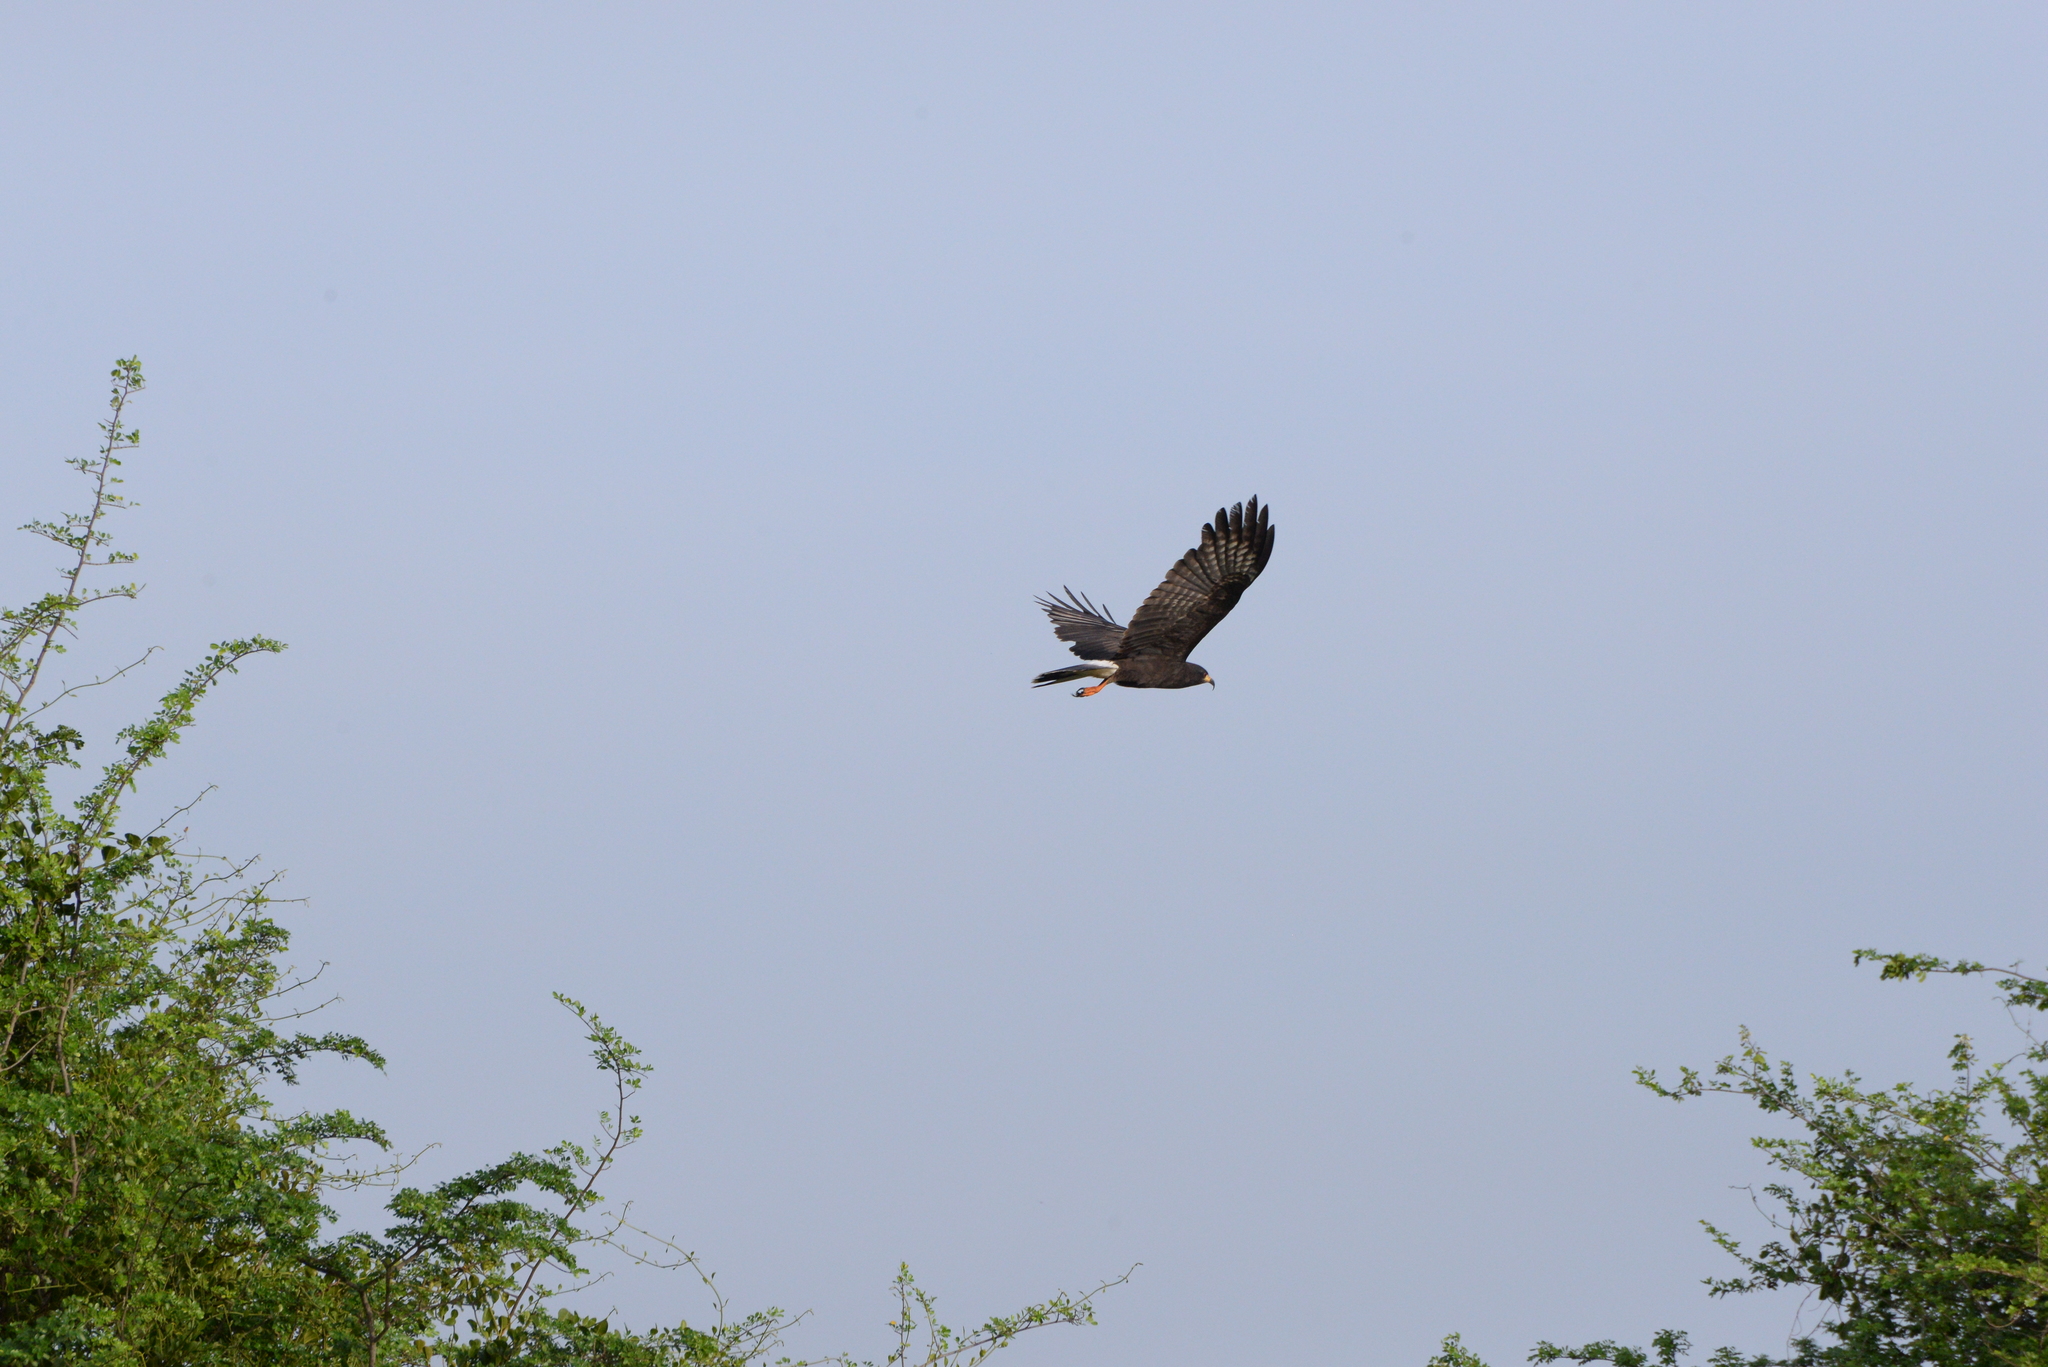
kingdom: Animalia
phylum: Chordata
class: Aves
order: Accipitriformes
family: Accipitridae
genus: Rostrhamus
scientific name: Rostrhamus sociabilis
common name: Snail kite
